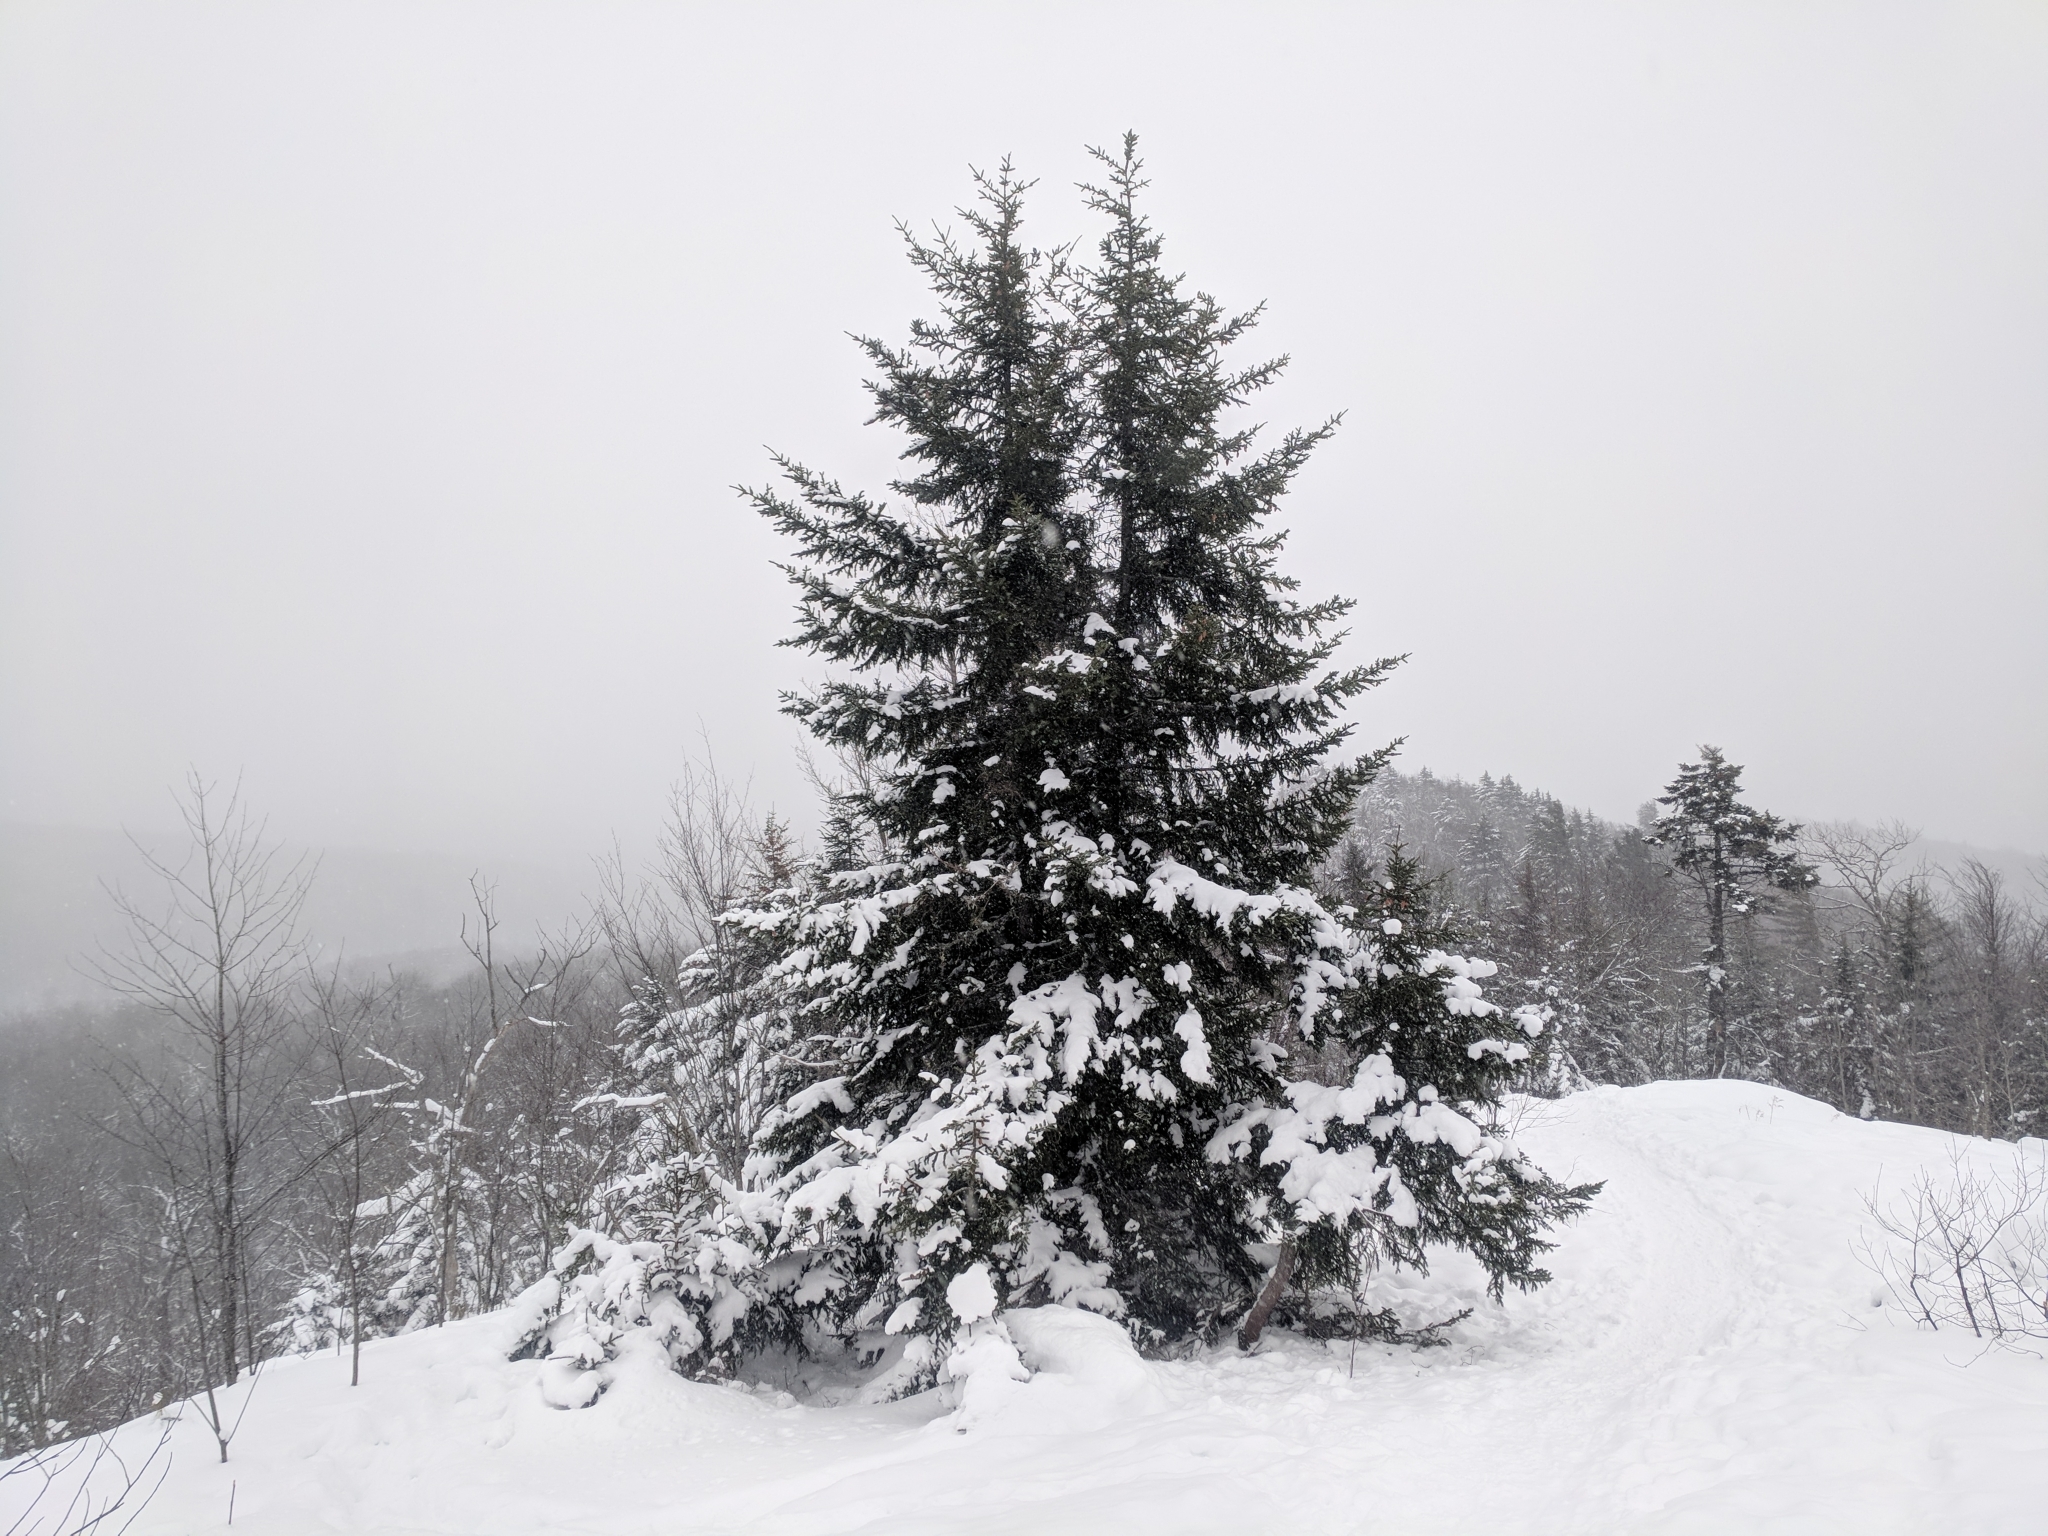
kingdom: Plantae
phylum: Tracheophyta
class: Pinopsida
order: Pinales
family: Pinaceae
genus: Picea
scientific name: Picea rubens
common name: Red spruce
